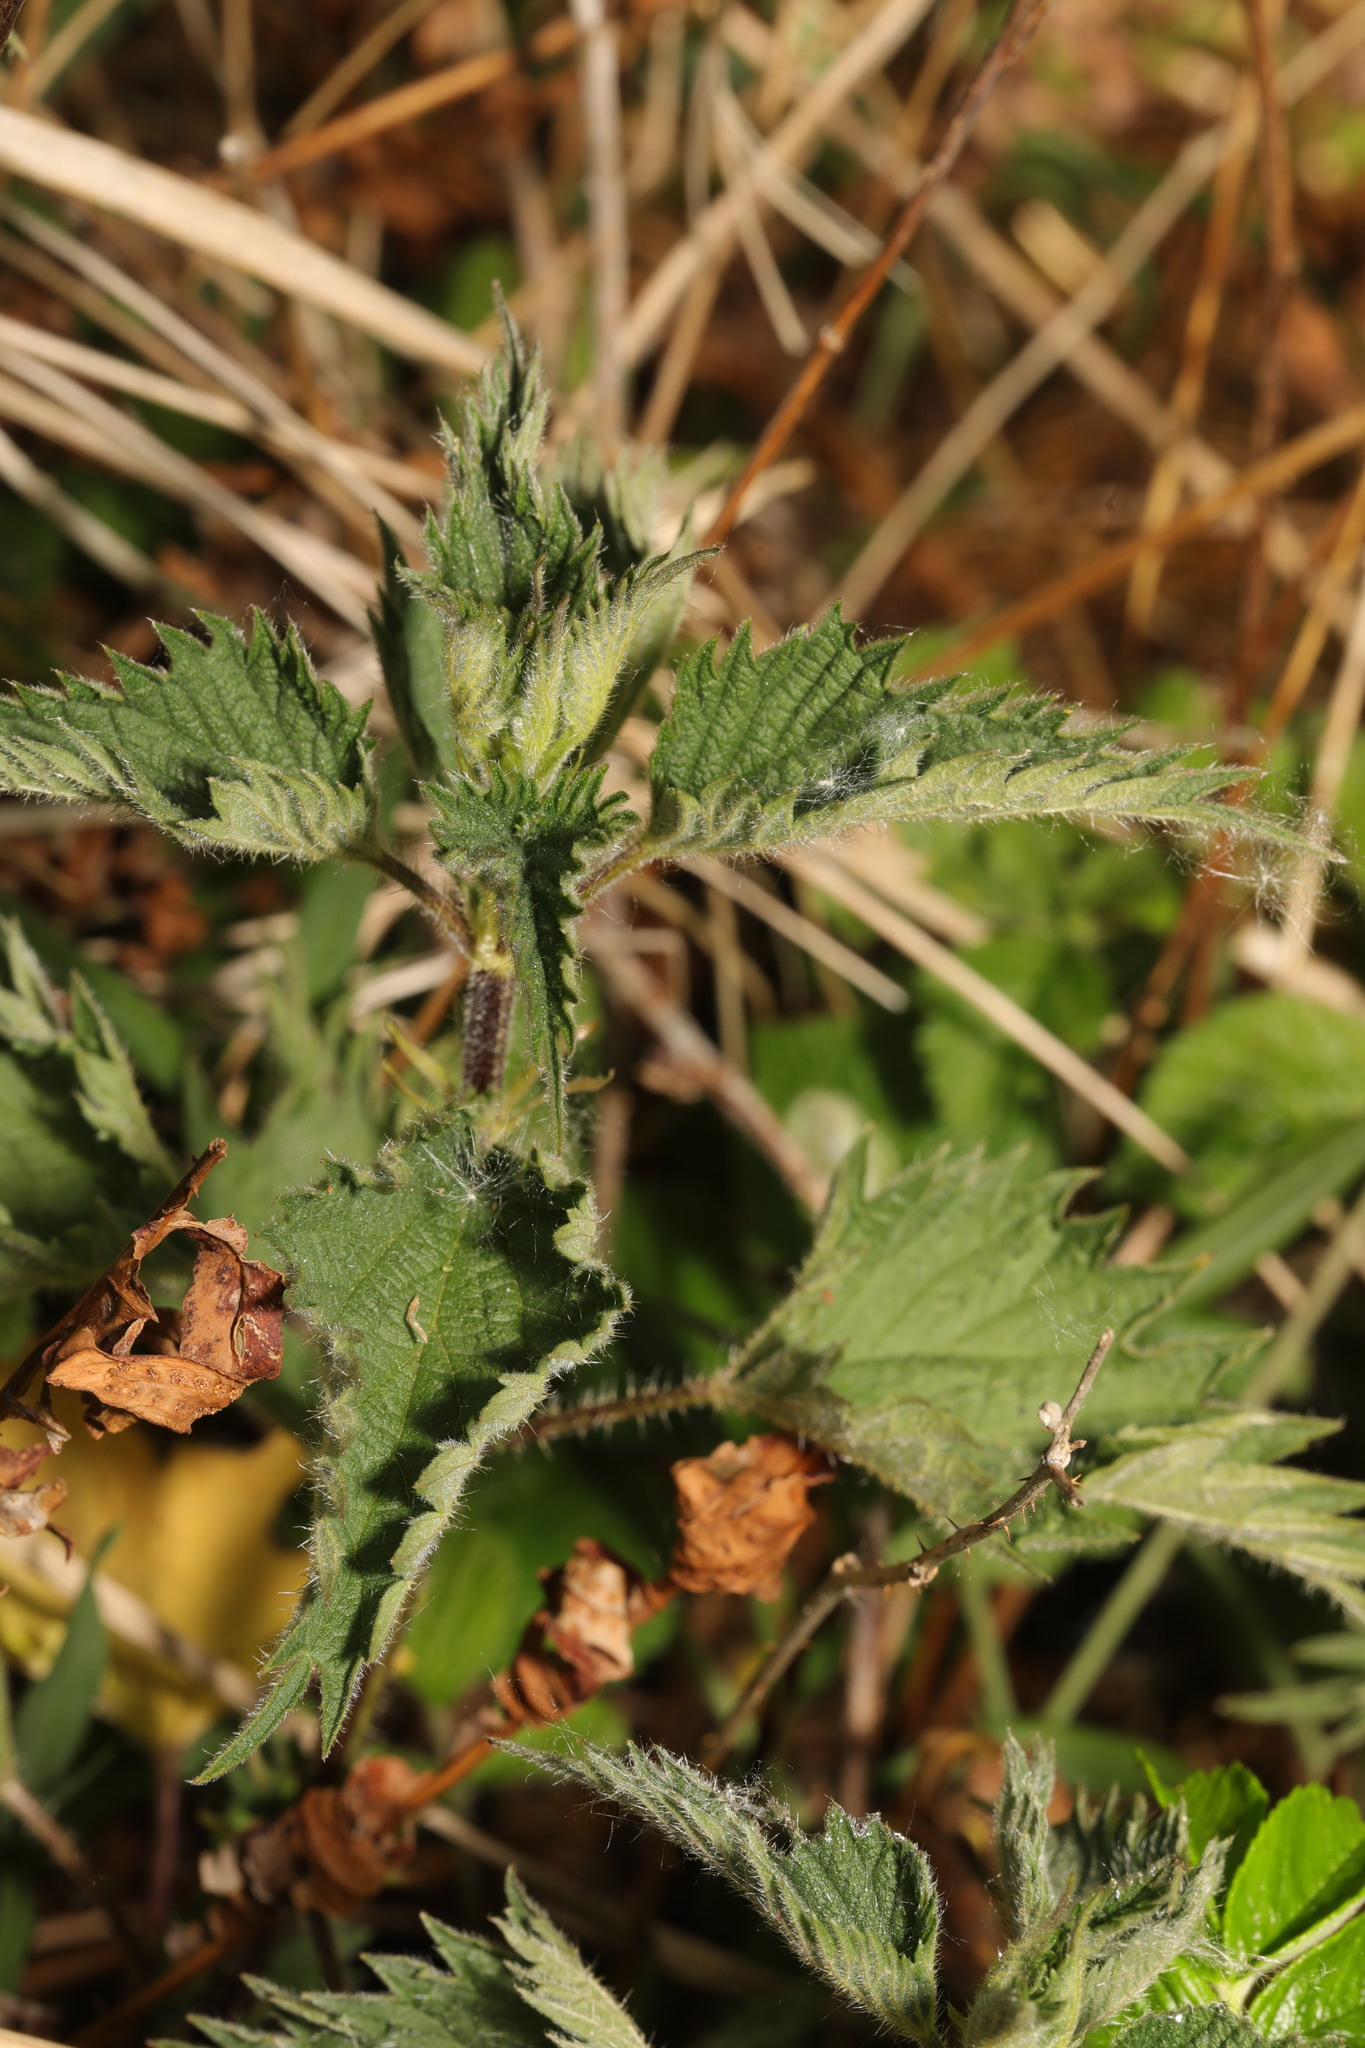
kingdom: Plantae
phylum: Tracheophyta
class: Magnoliopsida
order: Rosales
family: Urticaceae
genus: Urtica
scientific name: Urtica dioica
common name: Common nettle
